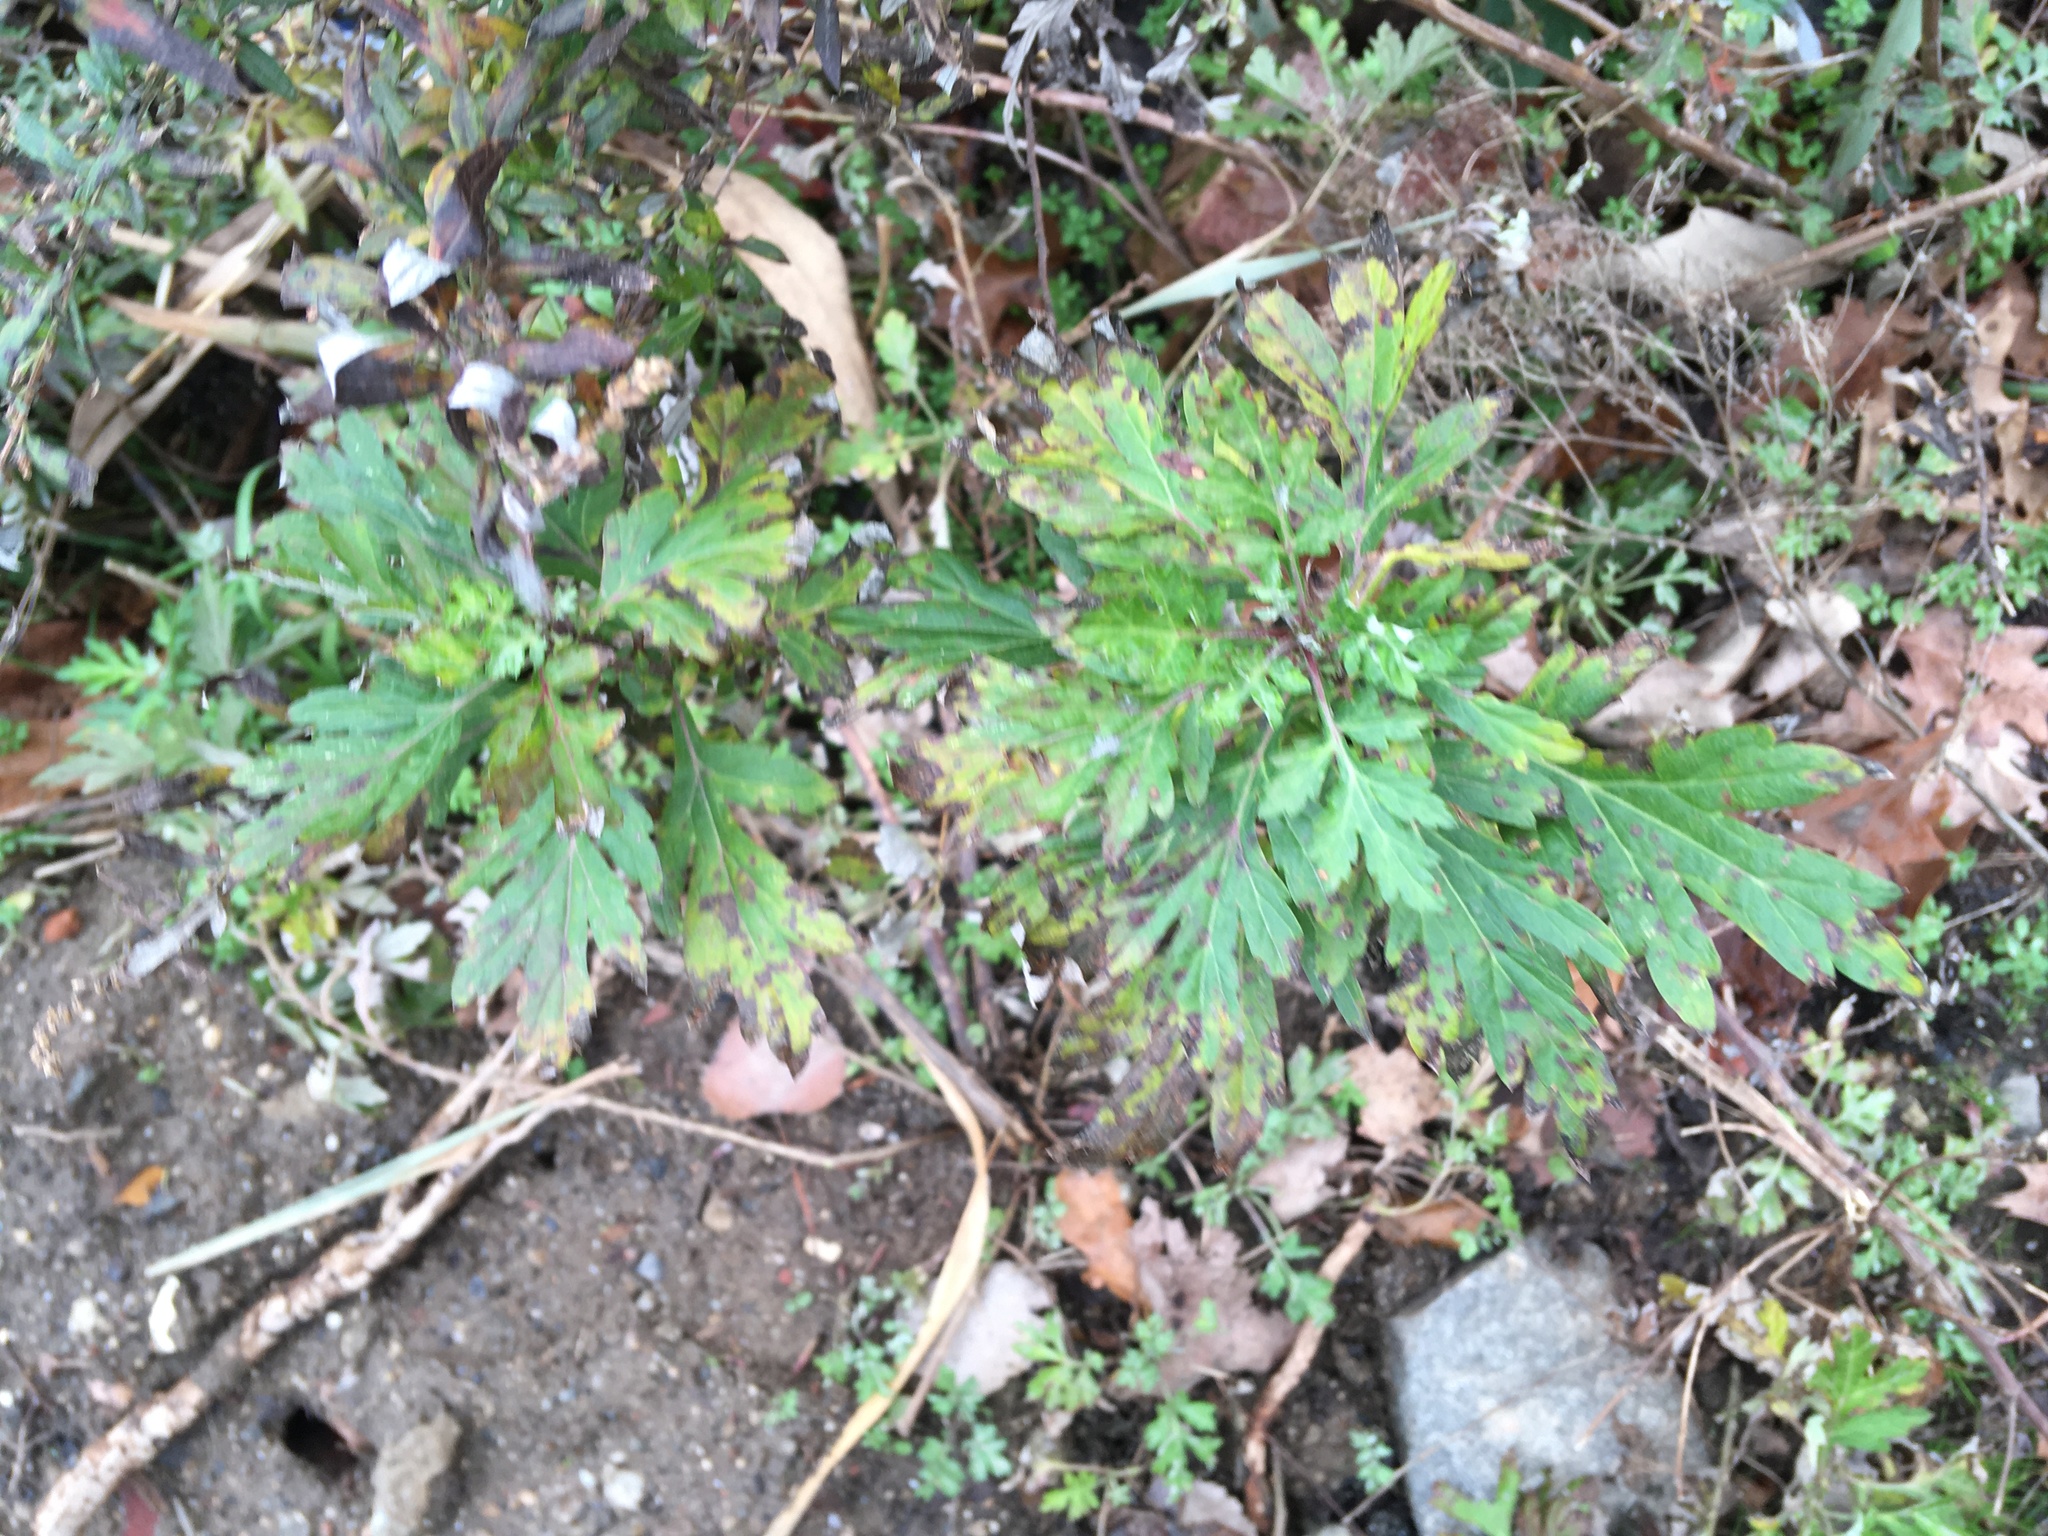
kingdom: Plantae
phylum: Tracheophyta
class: Magnoliopsida
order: Asterales
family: Asteraceae
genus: Artemisia
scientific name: Artemisia vulgaris
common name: Mugwort
